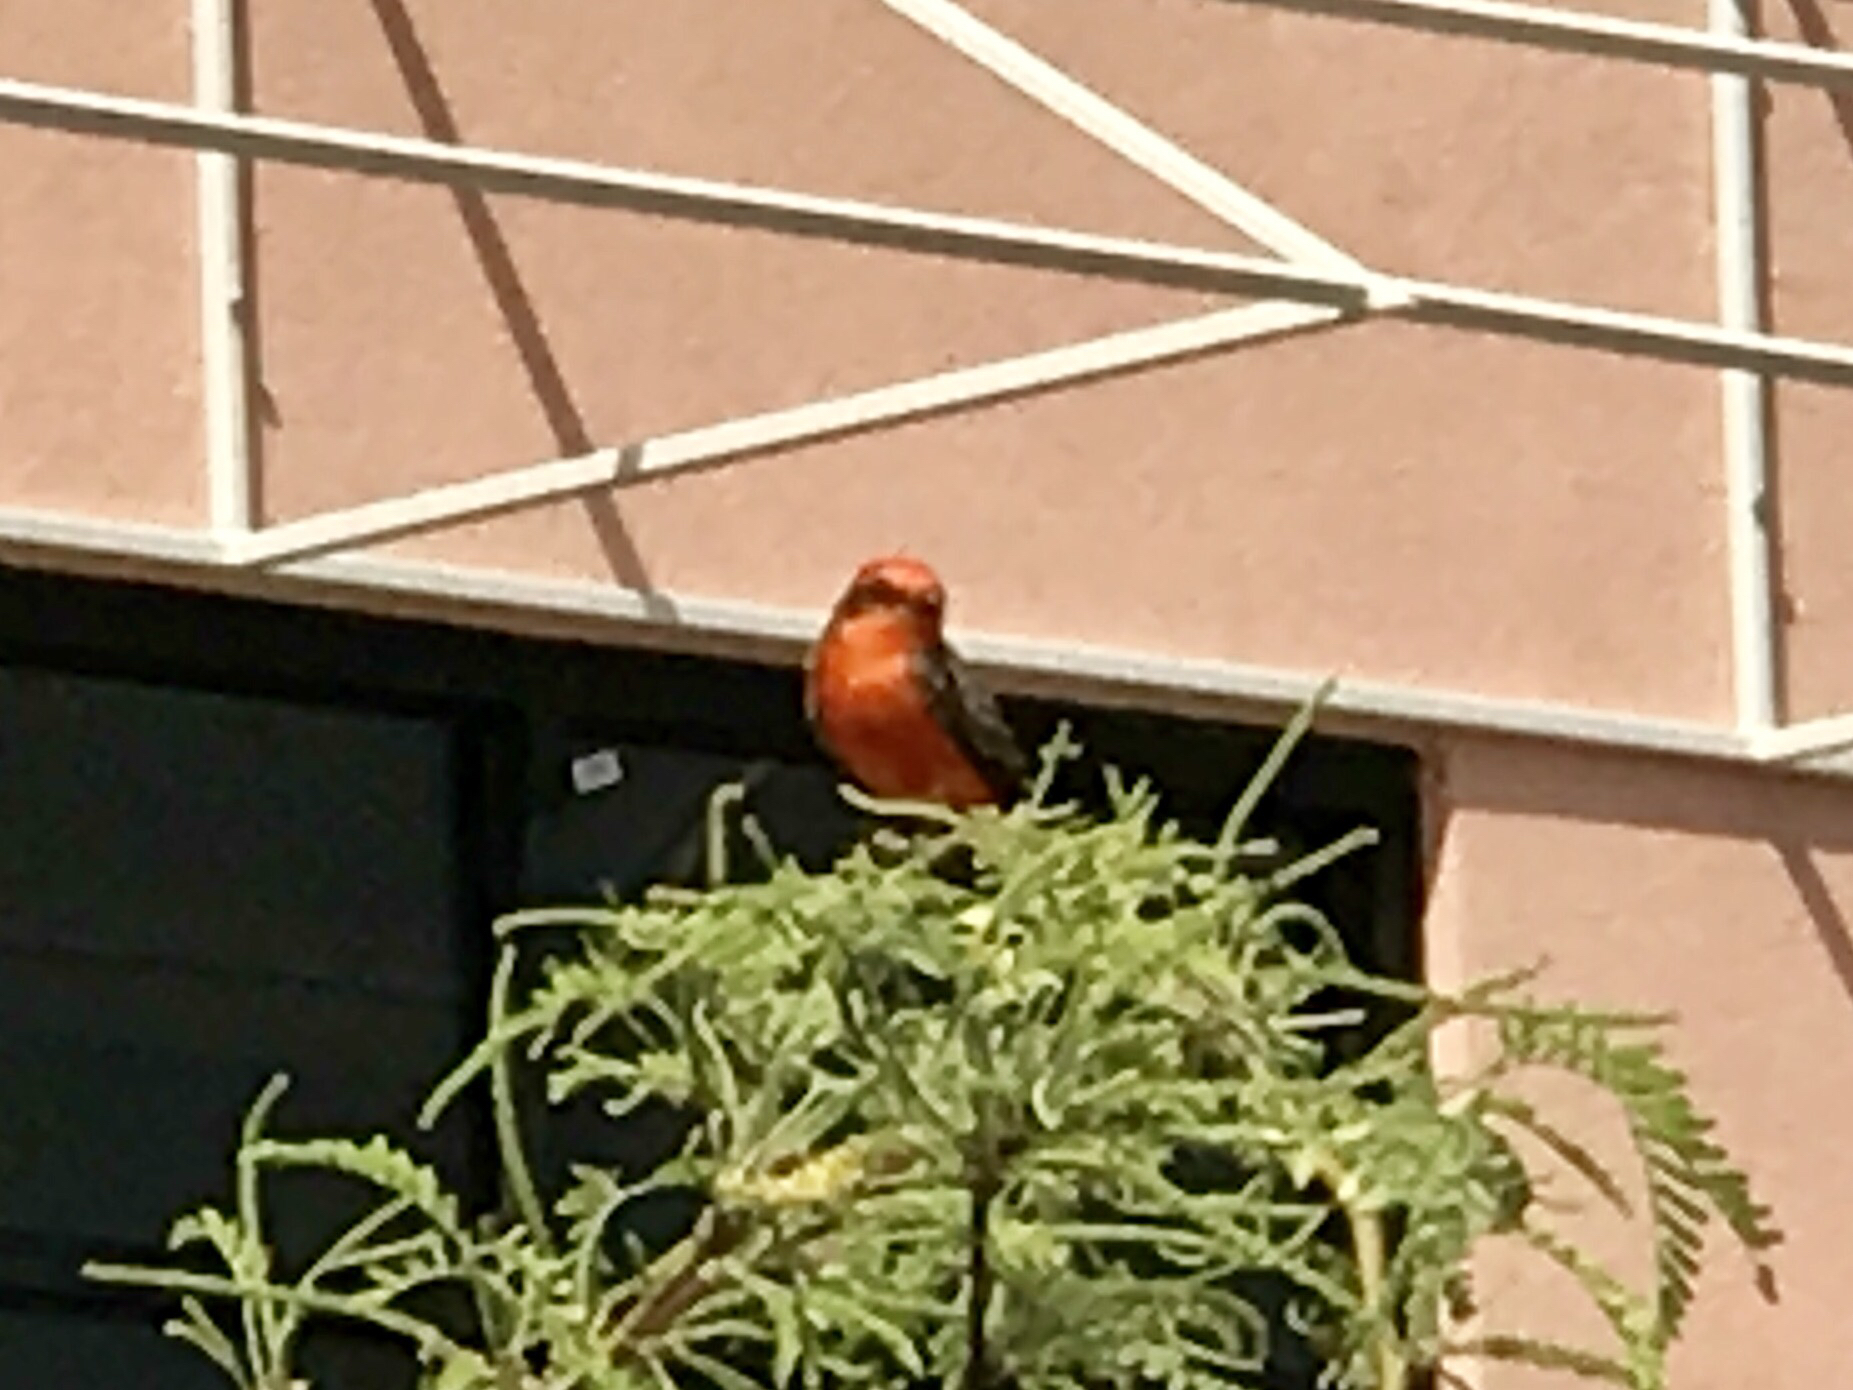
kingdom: Animalia
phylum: Chordata
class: Aves
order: Passeriformes
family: Tyrannidae
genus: Pyrocephalus
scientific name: Pyrocephalus rubinus
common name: Vermilion flycatcher
